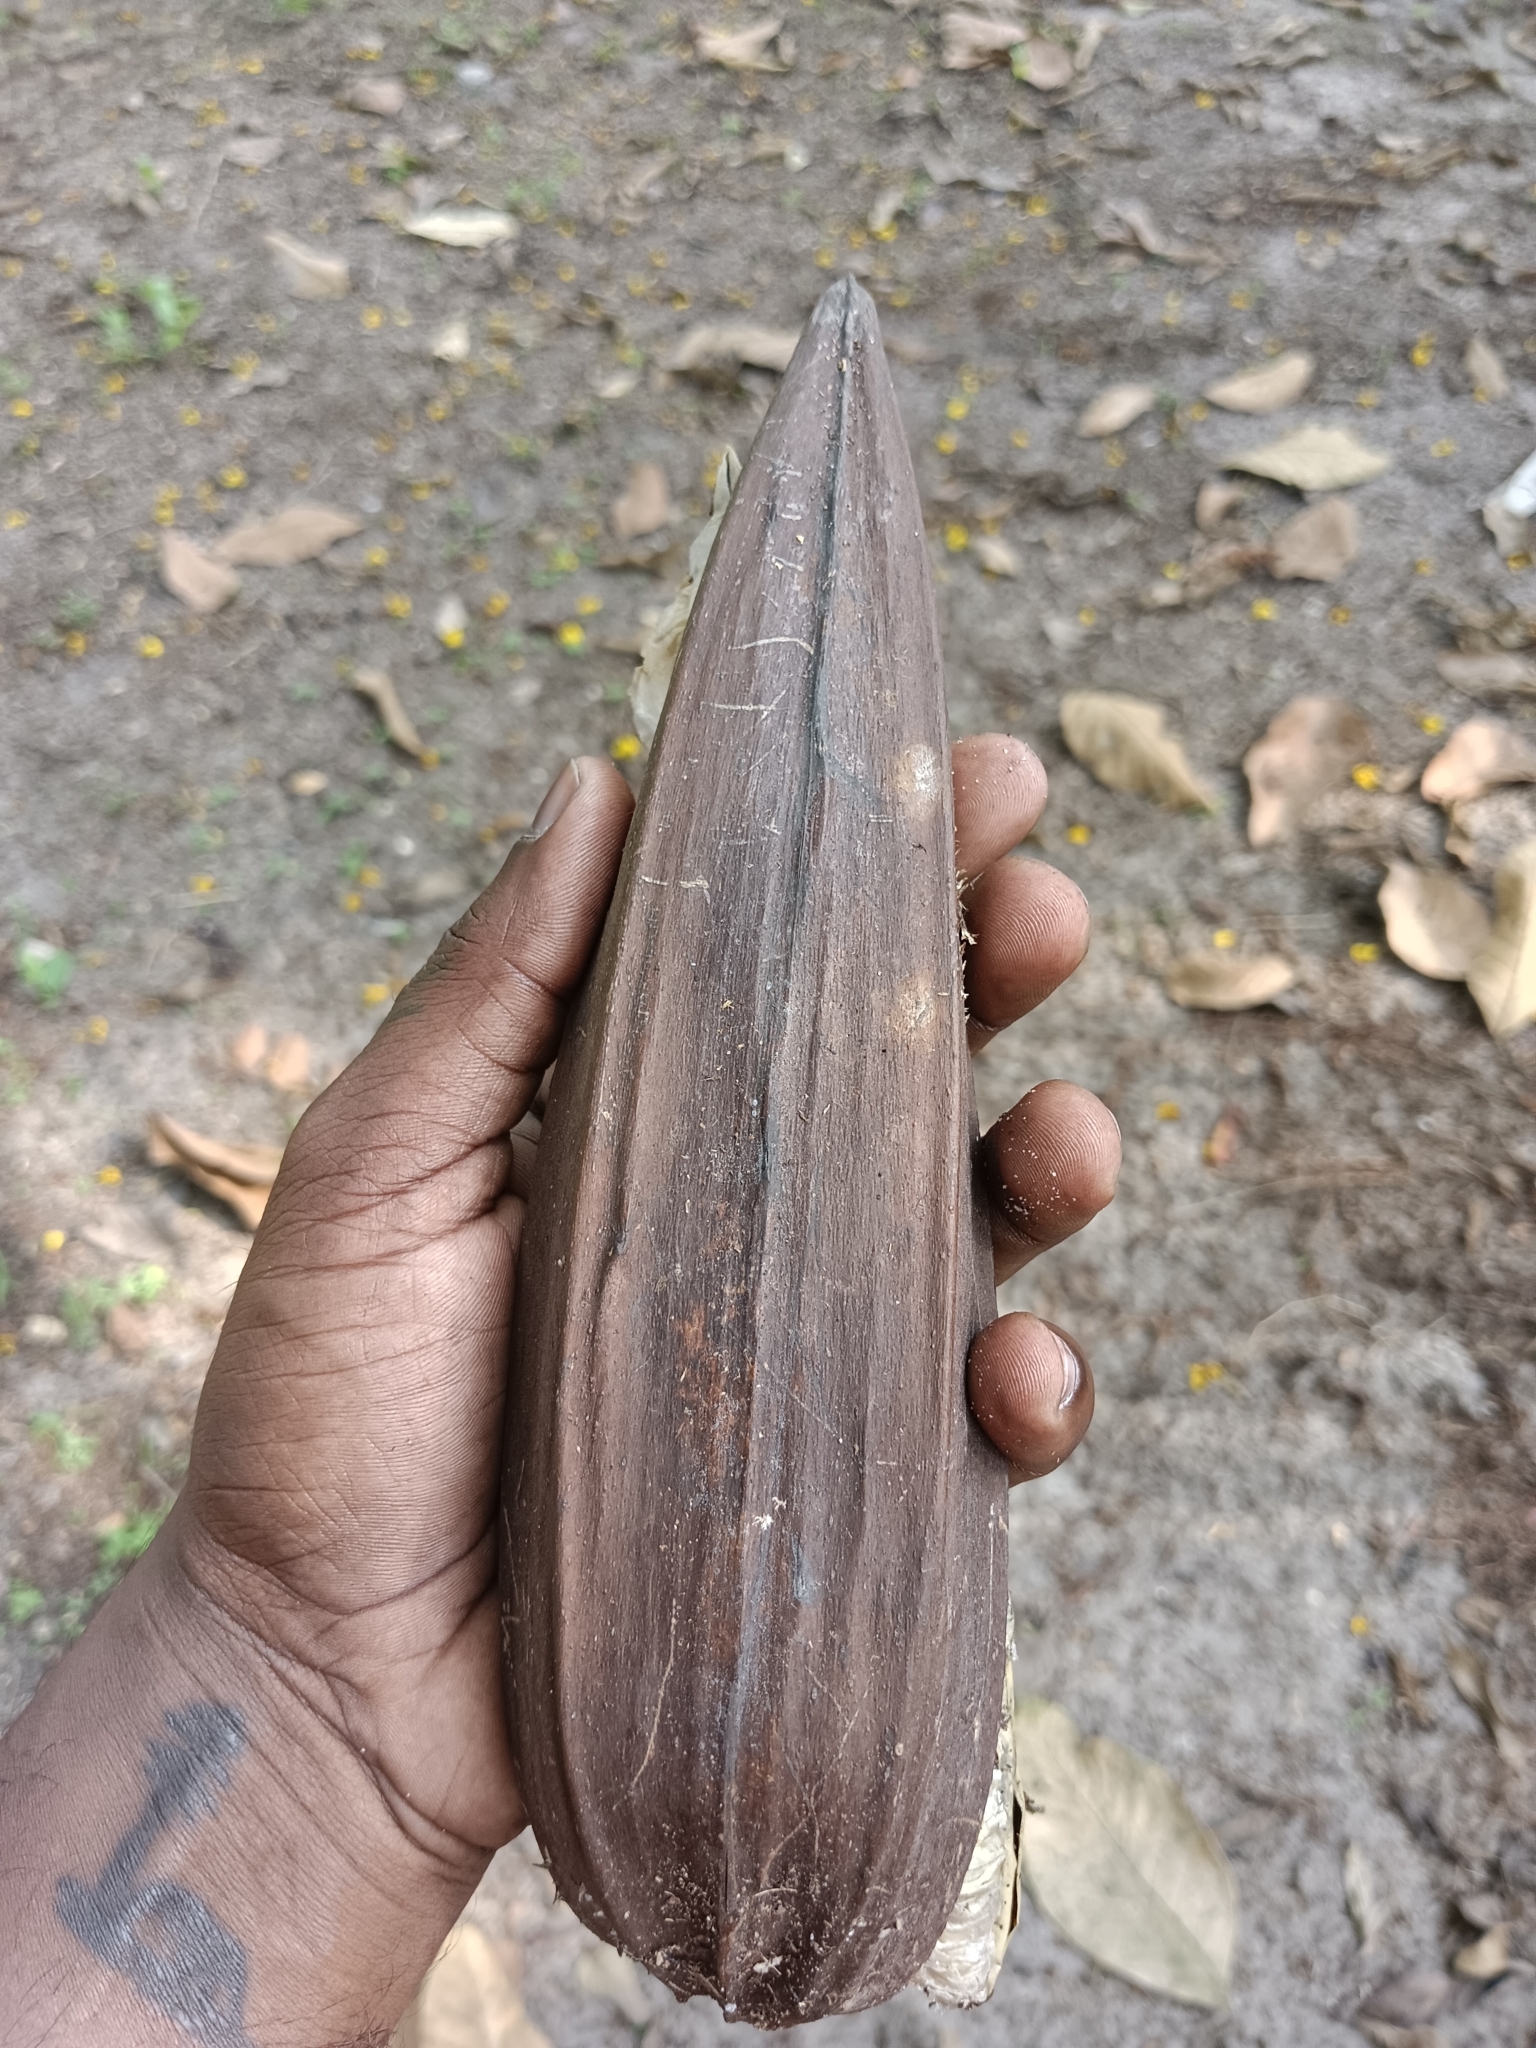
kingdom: Plantae
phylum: Tracheophyta
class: Magnoliopsida
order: Lamiales
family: Bignoniaceae
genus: Spathodea
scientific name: Spathodea campanulata
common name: African tuliptree
